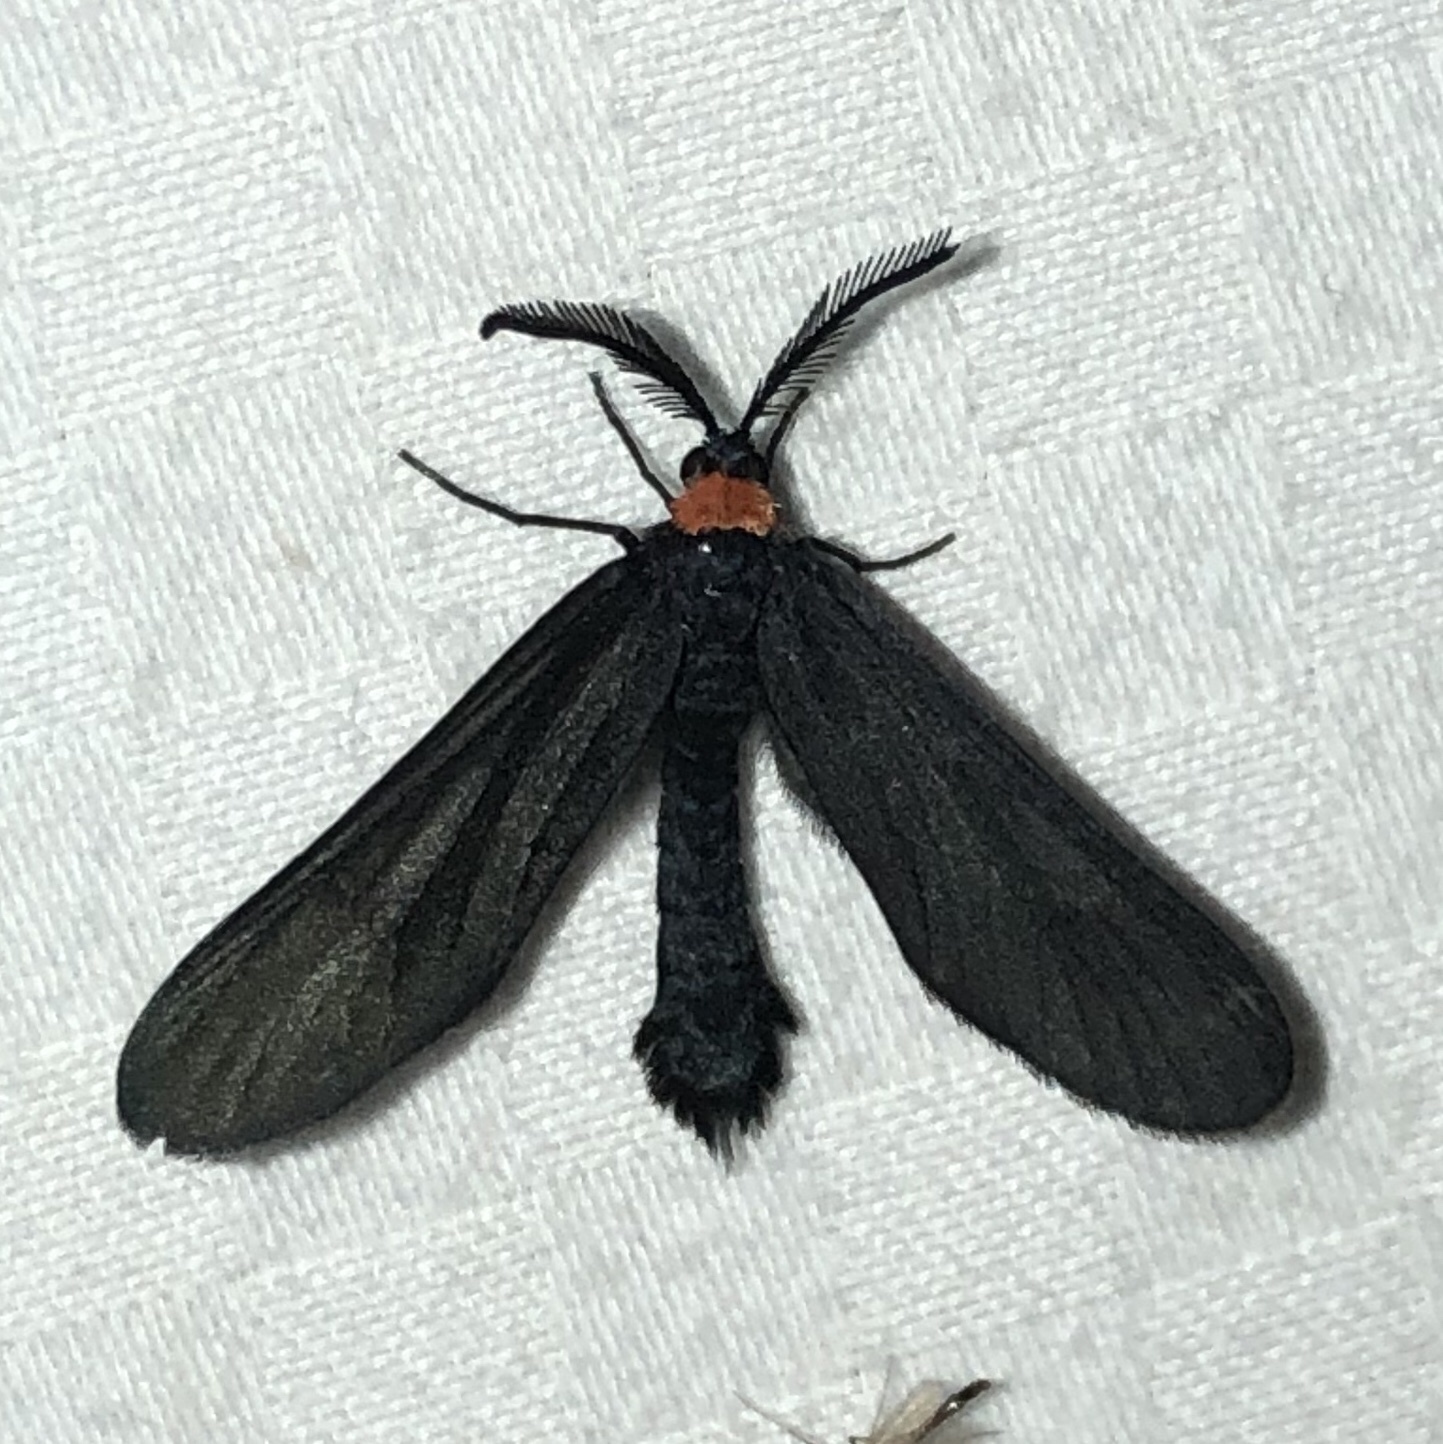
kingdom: Animalia
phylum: Arthropoda
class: Insecta
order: Lepidoptera
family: Zygaenidae
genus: Harrisina
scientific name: Harrisina americana
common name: Grapeleaf skeletonizer moth
